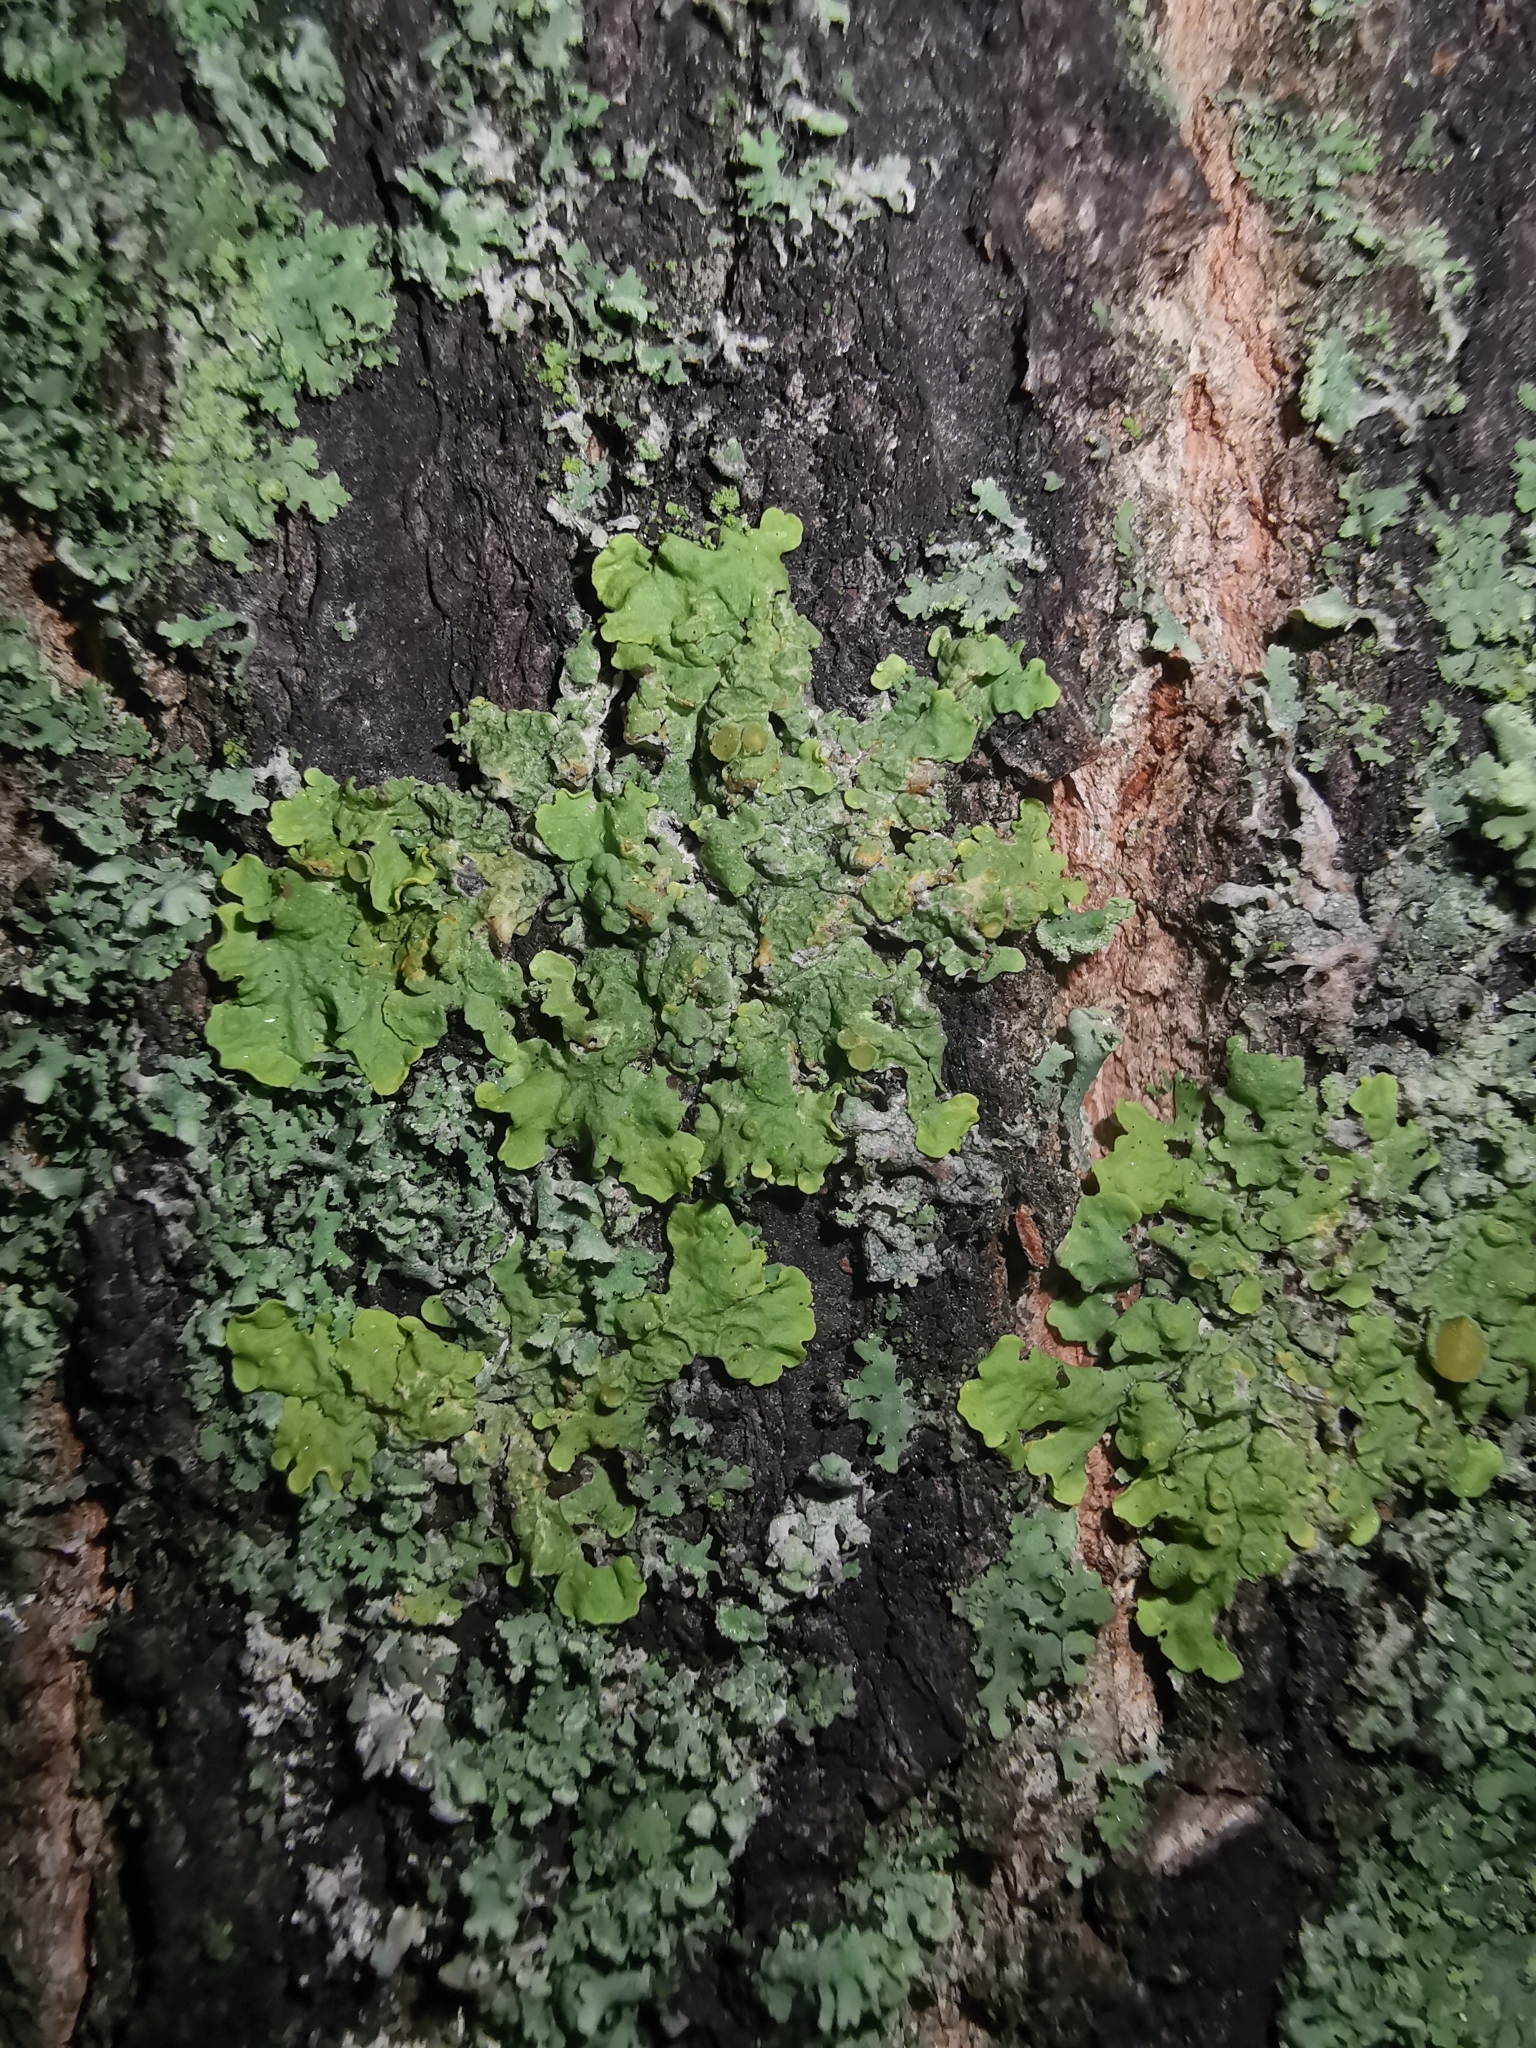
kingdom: Fungi
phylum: Ascomycota
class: Lecanoromycetes
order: Teloschistales
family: Teloschistaceae
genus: Xanthoria
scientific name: Xanthoria parietina
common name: Common orange lichen
